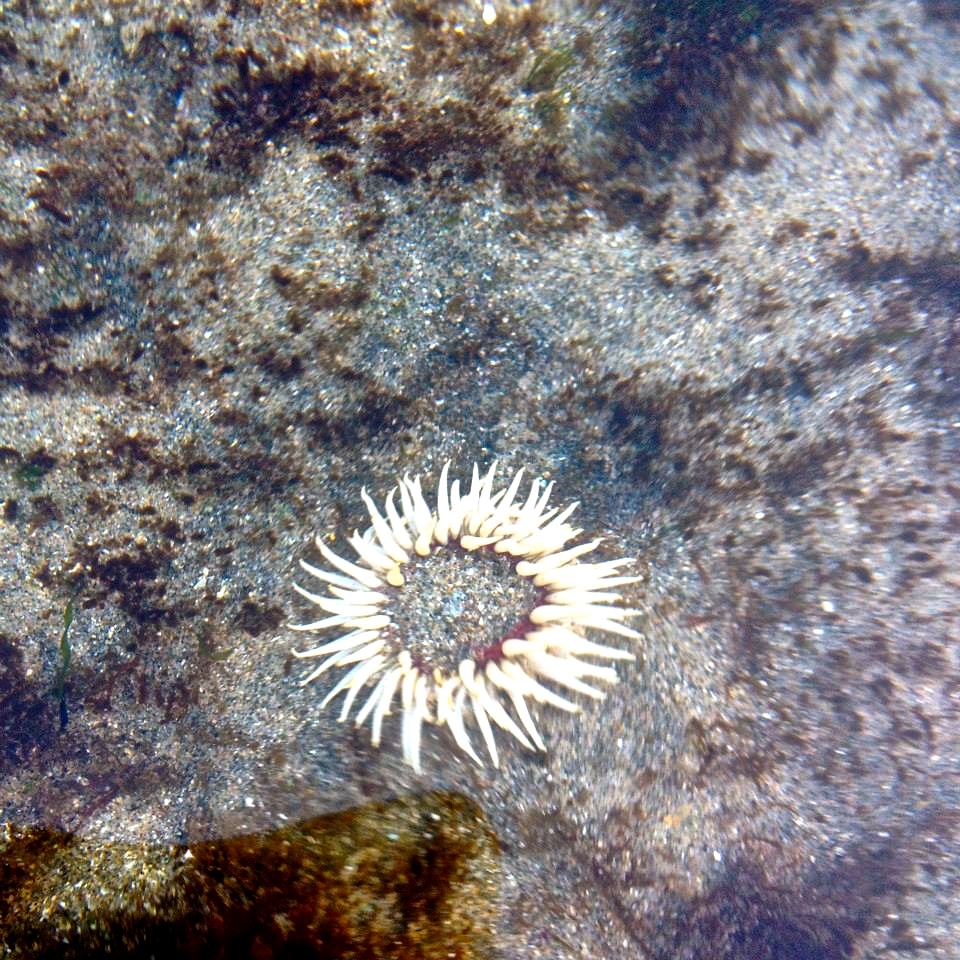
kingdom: Animalia
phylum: Cnidaria
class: Anthozoa
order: Actiniaria
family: Actiniidae
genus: Anthopleura
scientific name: Anthopleura artemisia
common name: Buried sea anemone
